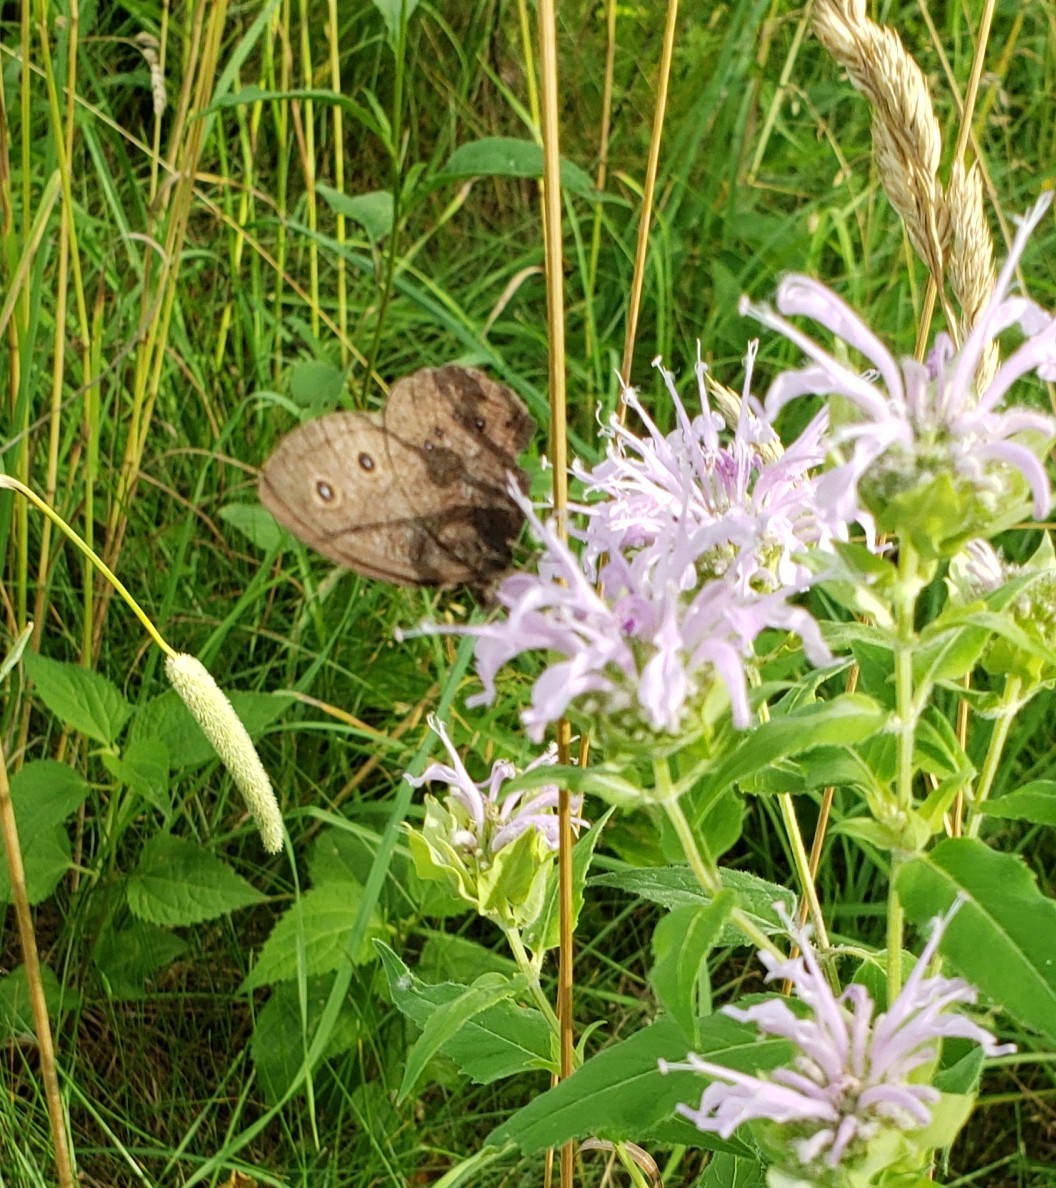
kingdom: Animalia
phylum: Arthropoda
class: Insecta
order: Lepidoptera
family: Nymphalidae
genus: Cercyonis
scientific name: Cercyonis pegala
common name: Common wood-nymph
